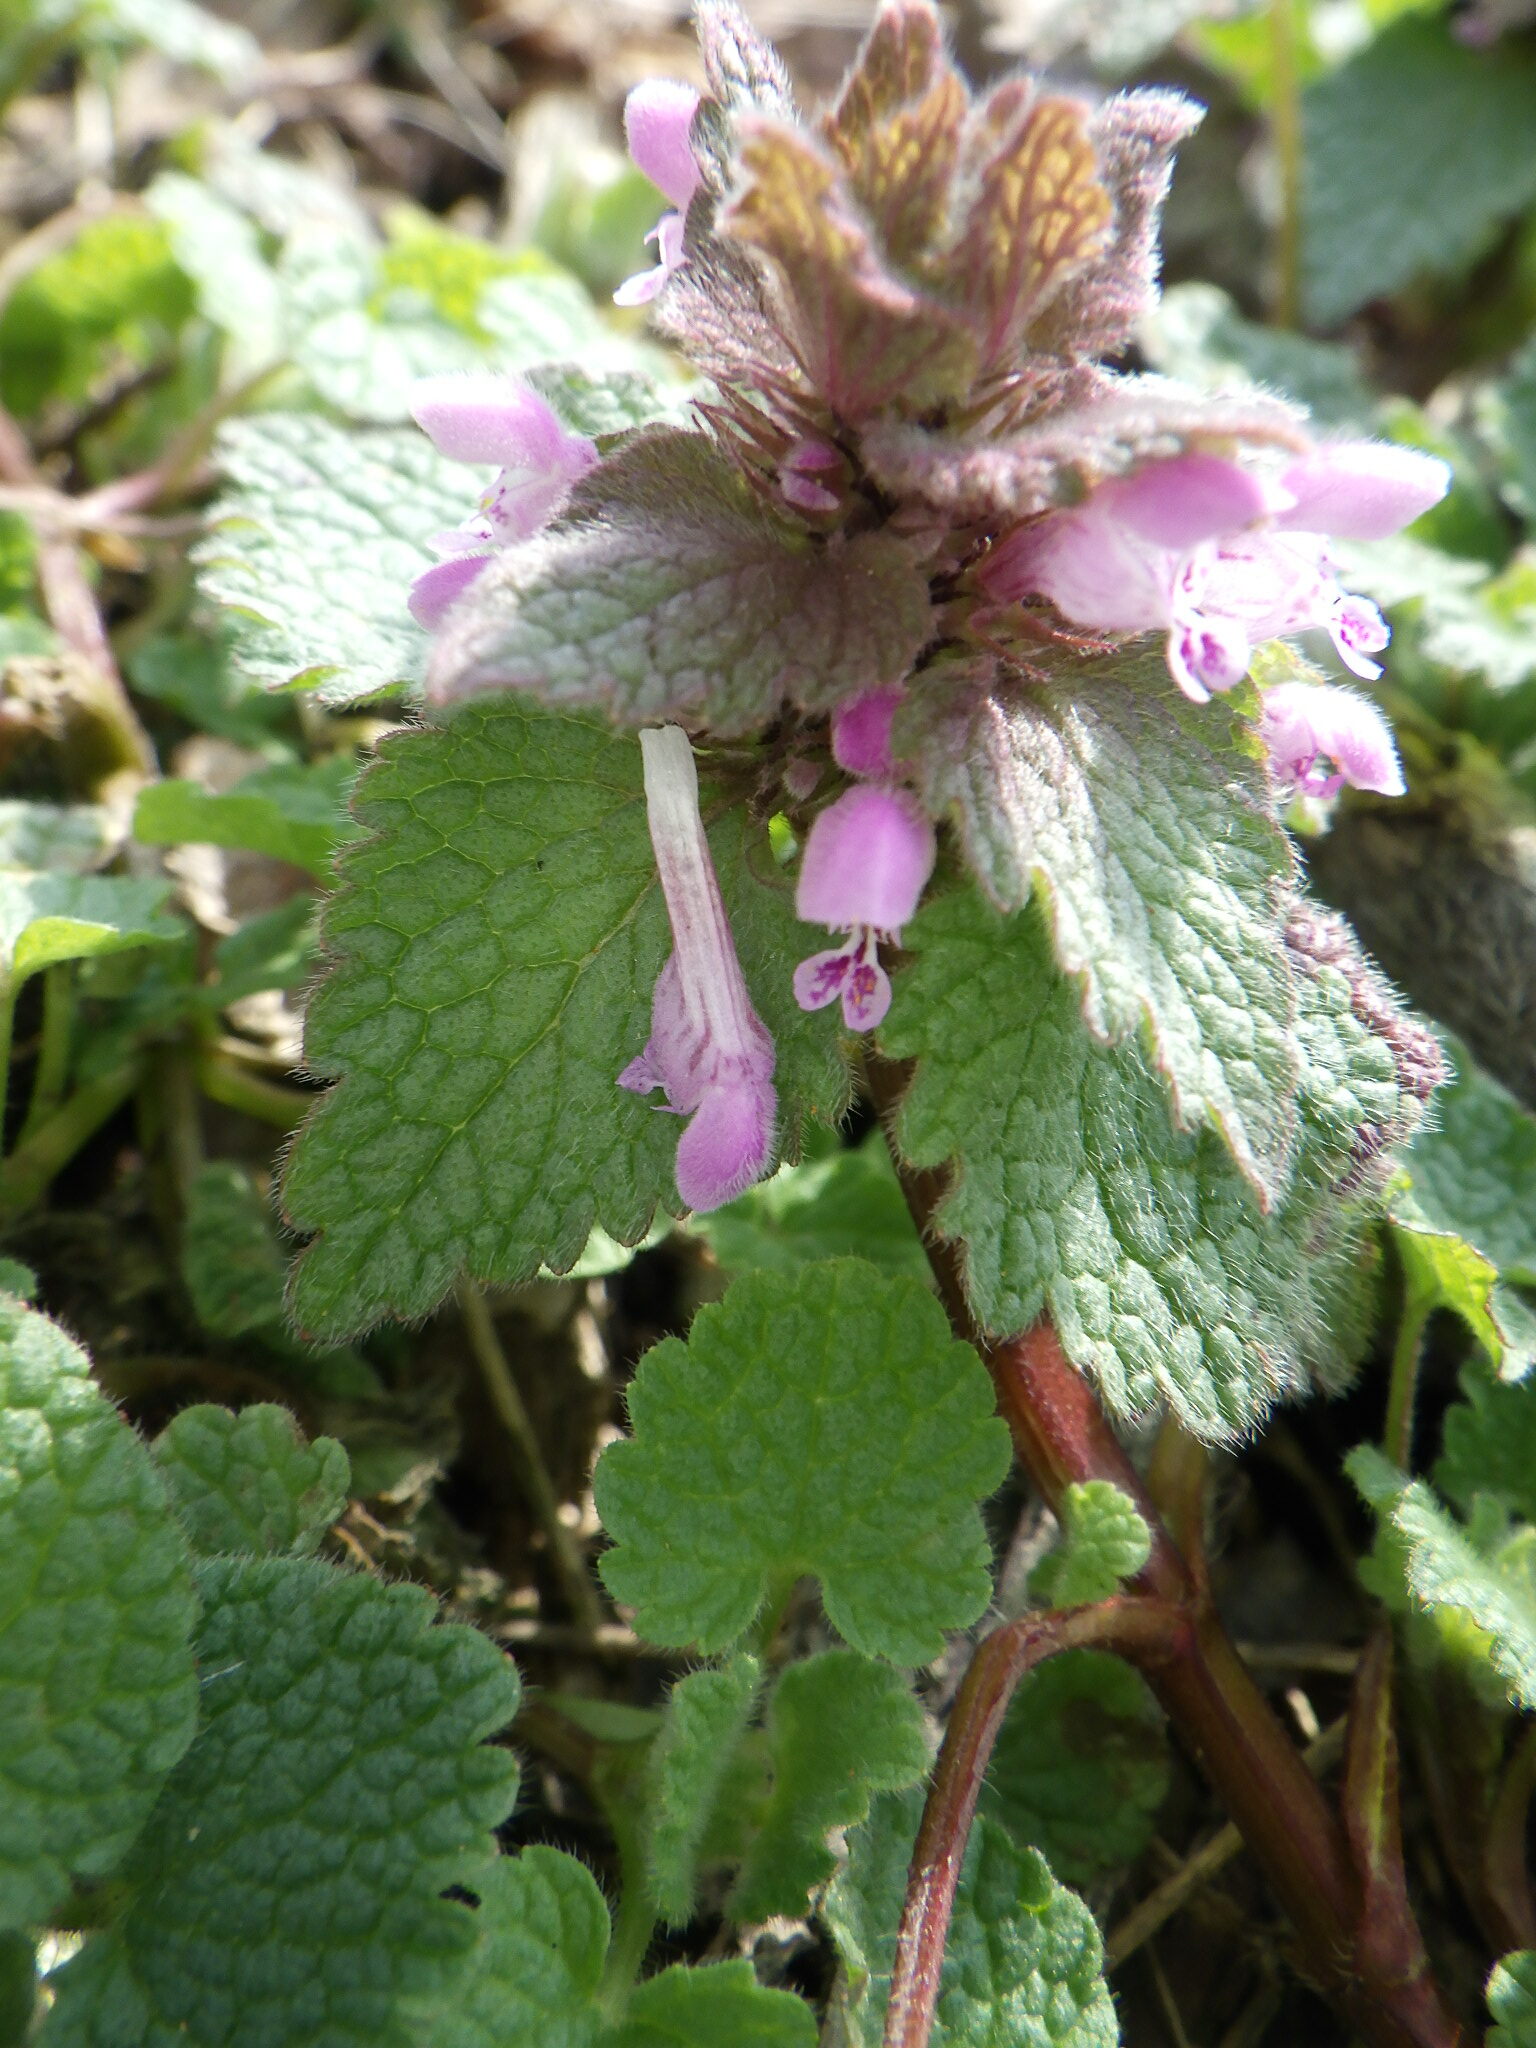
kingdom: Plantae
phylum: Tracheophyta
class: Magnoliopsida
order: Lamiales
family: Lamiaceae
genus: Lamium
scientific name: Lamium purpureum
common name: Red dead-nettle
